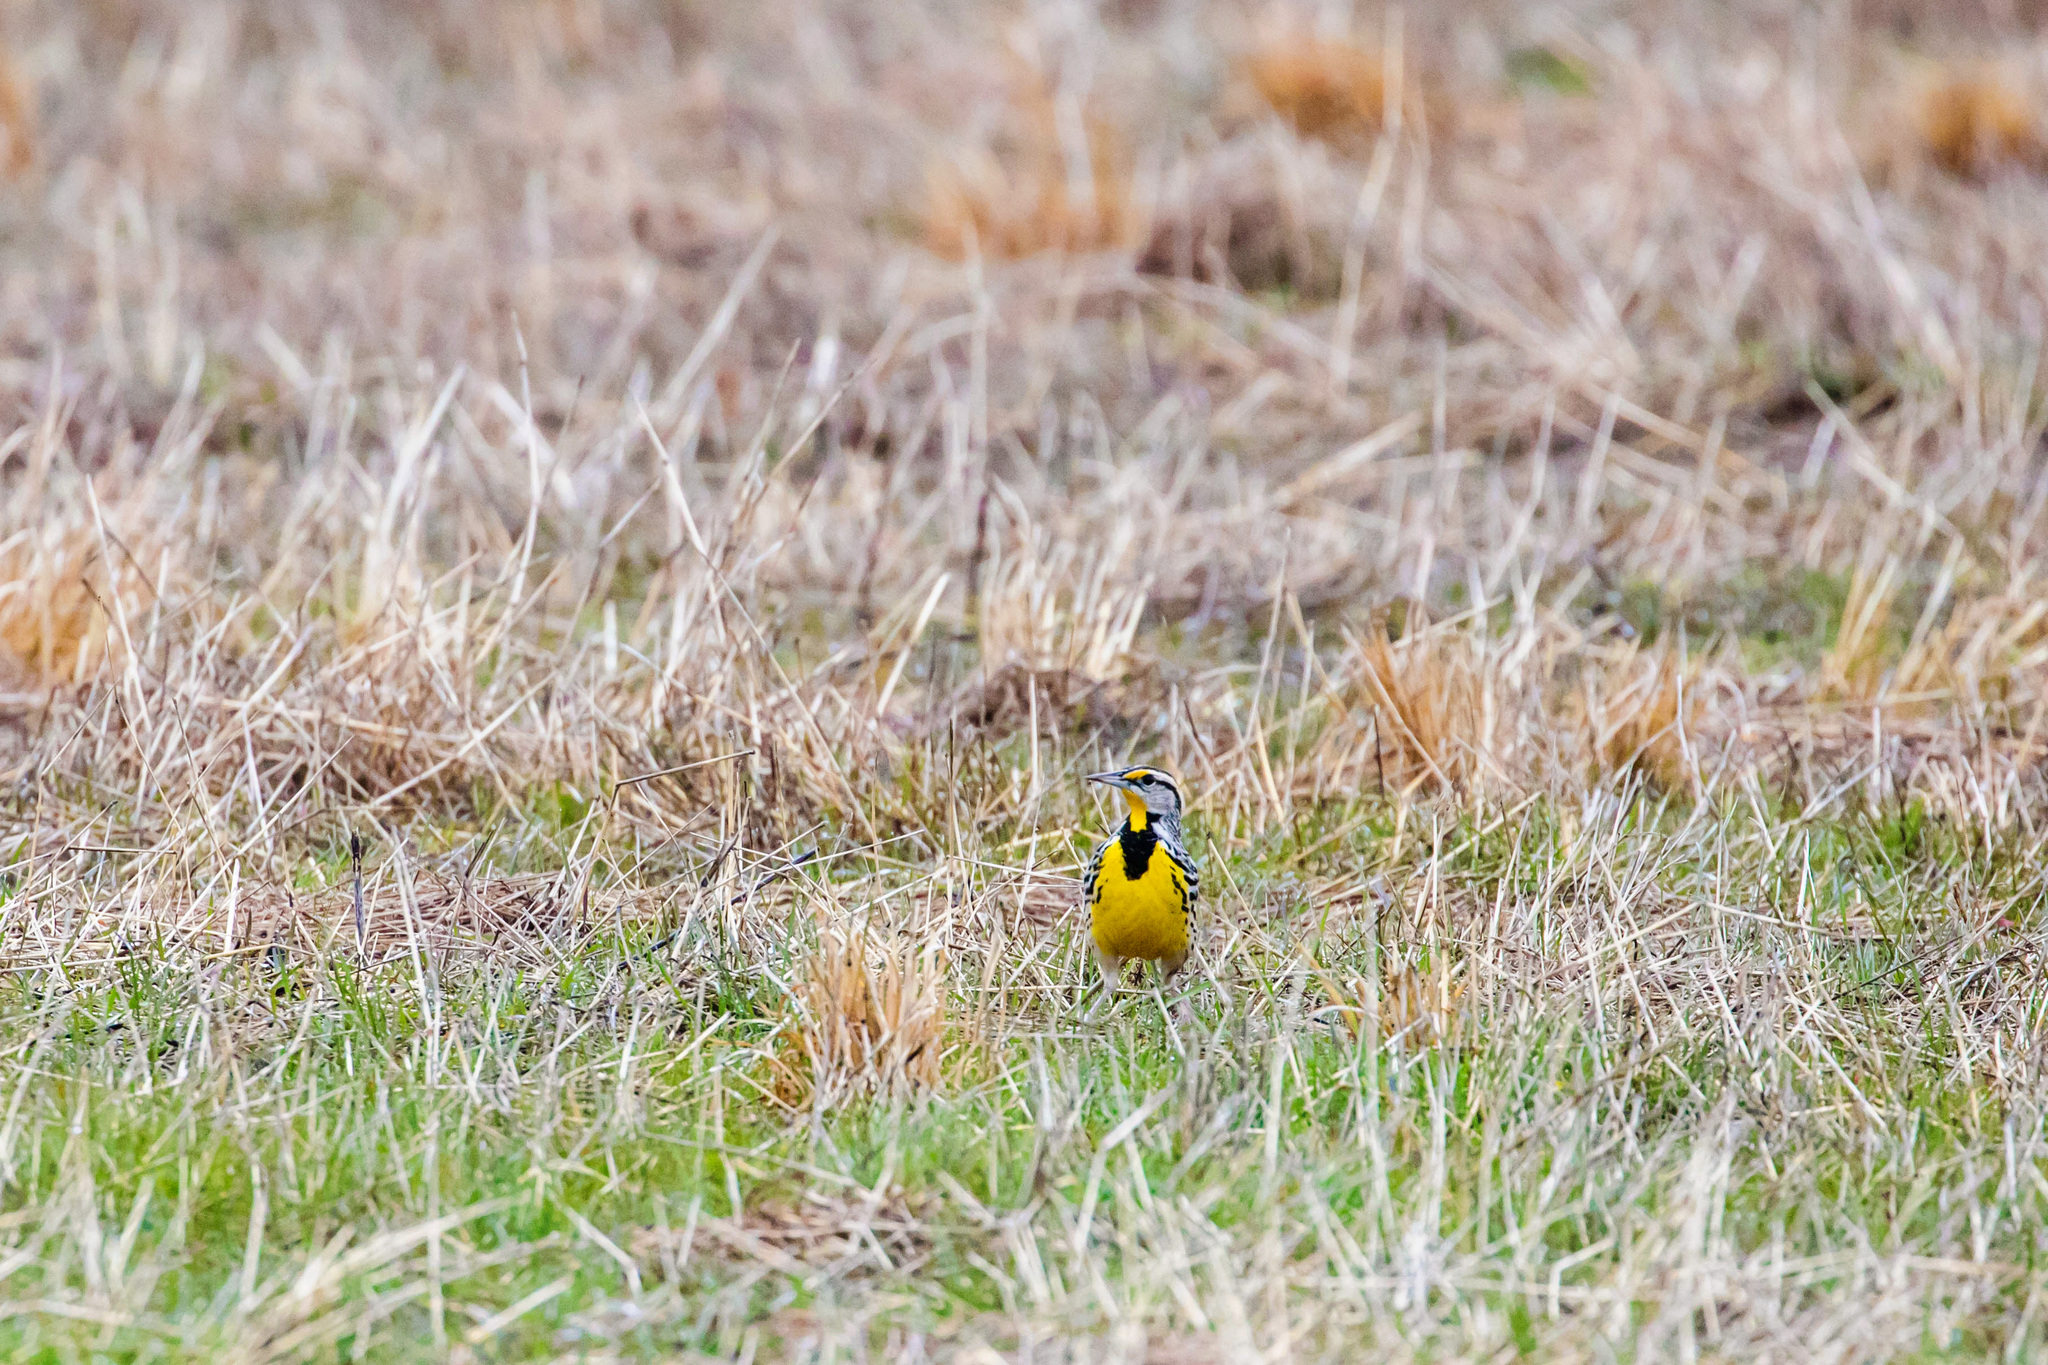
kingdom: Animalia
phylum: Chordata
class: Aves
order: Passeriformes
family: Icteridae
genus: Sturnella
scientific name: Sturnella magna
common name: Eastern meadowlark
